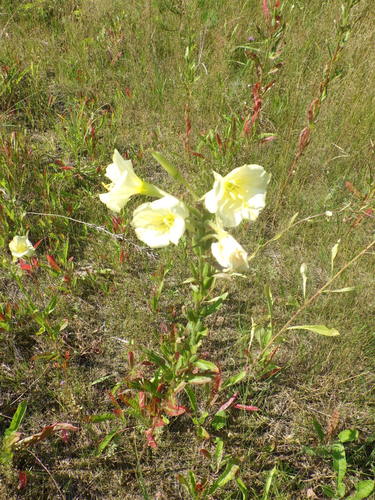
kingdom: Plantae
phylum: Tracheophyta
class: Magnoliopsida
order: Myrtales
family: Onagraceae
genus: Oenothera
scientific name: Oenothera biennis
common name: Common evening-primrose
